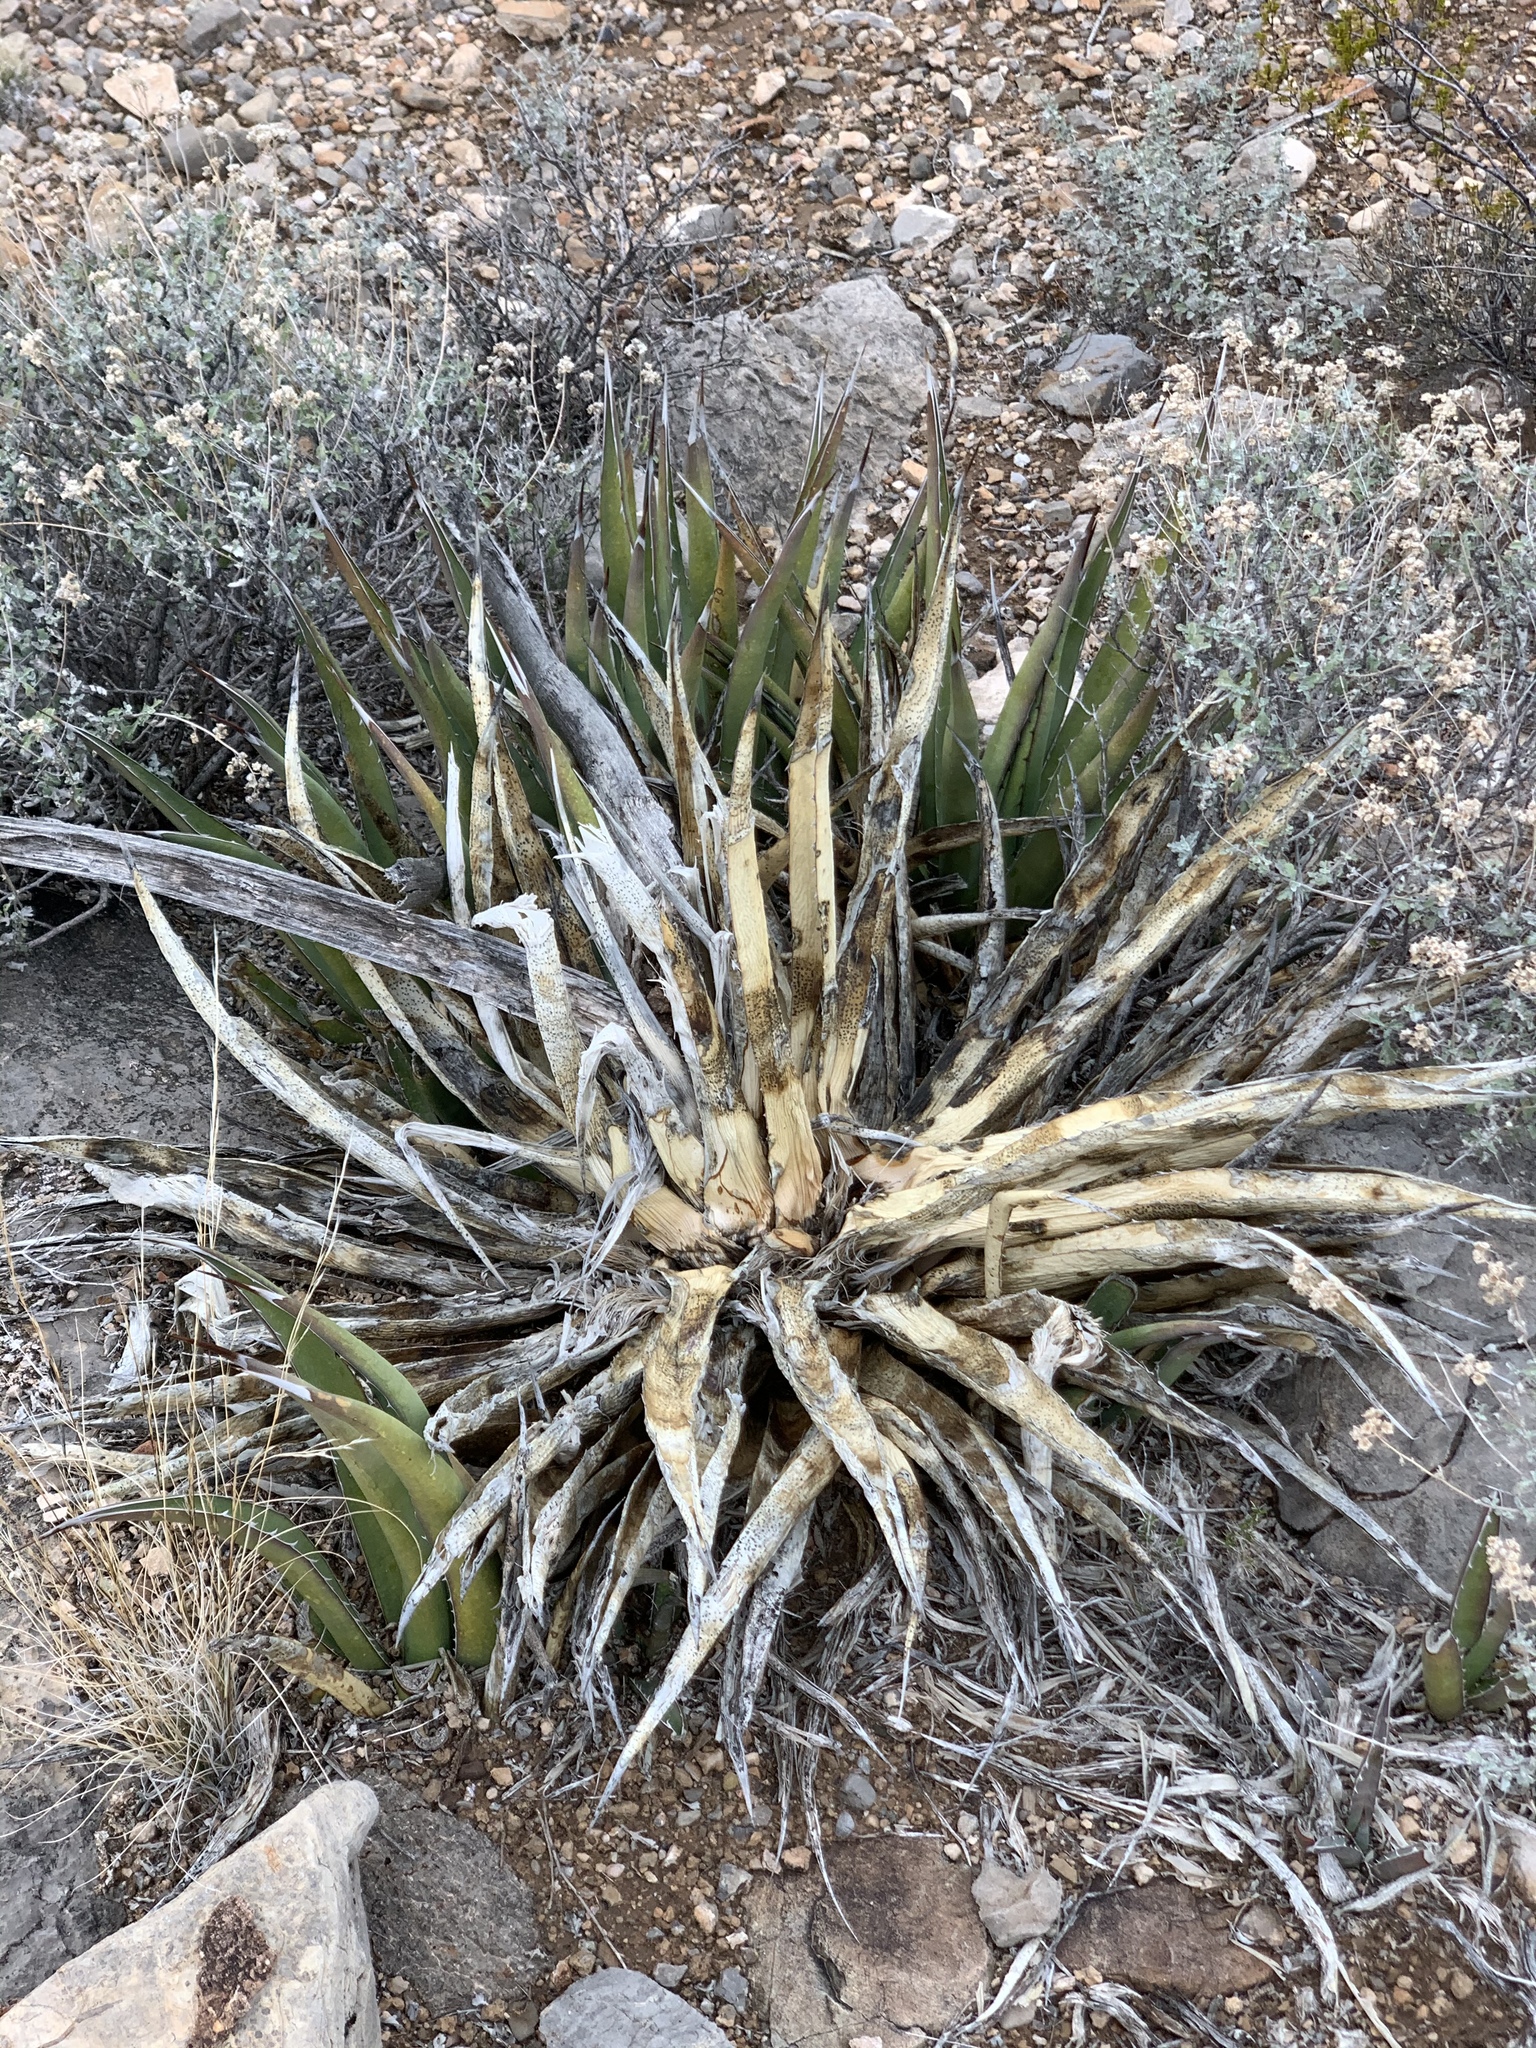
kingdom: Plantae
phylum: Tracheophyta
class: Liliopsida
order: Asparagales
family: Asparagaceae
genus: Agave
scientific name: Agave lechuguilla
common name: Lecheguilla agave
